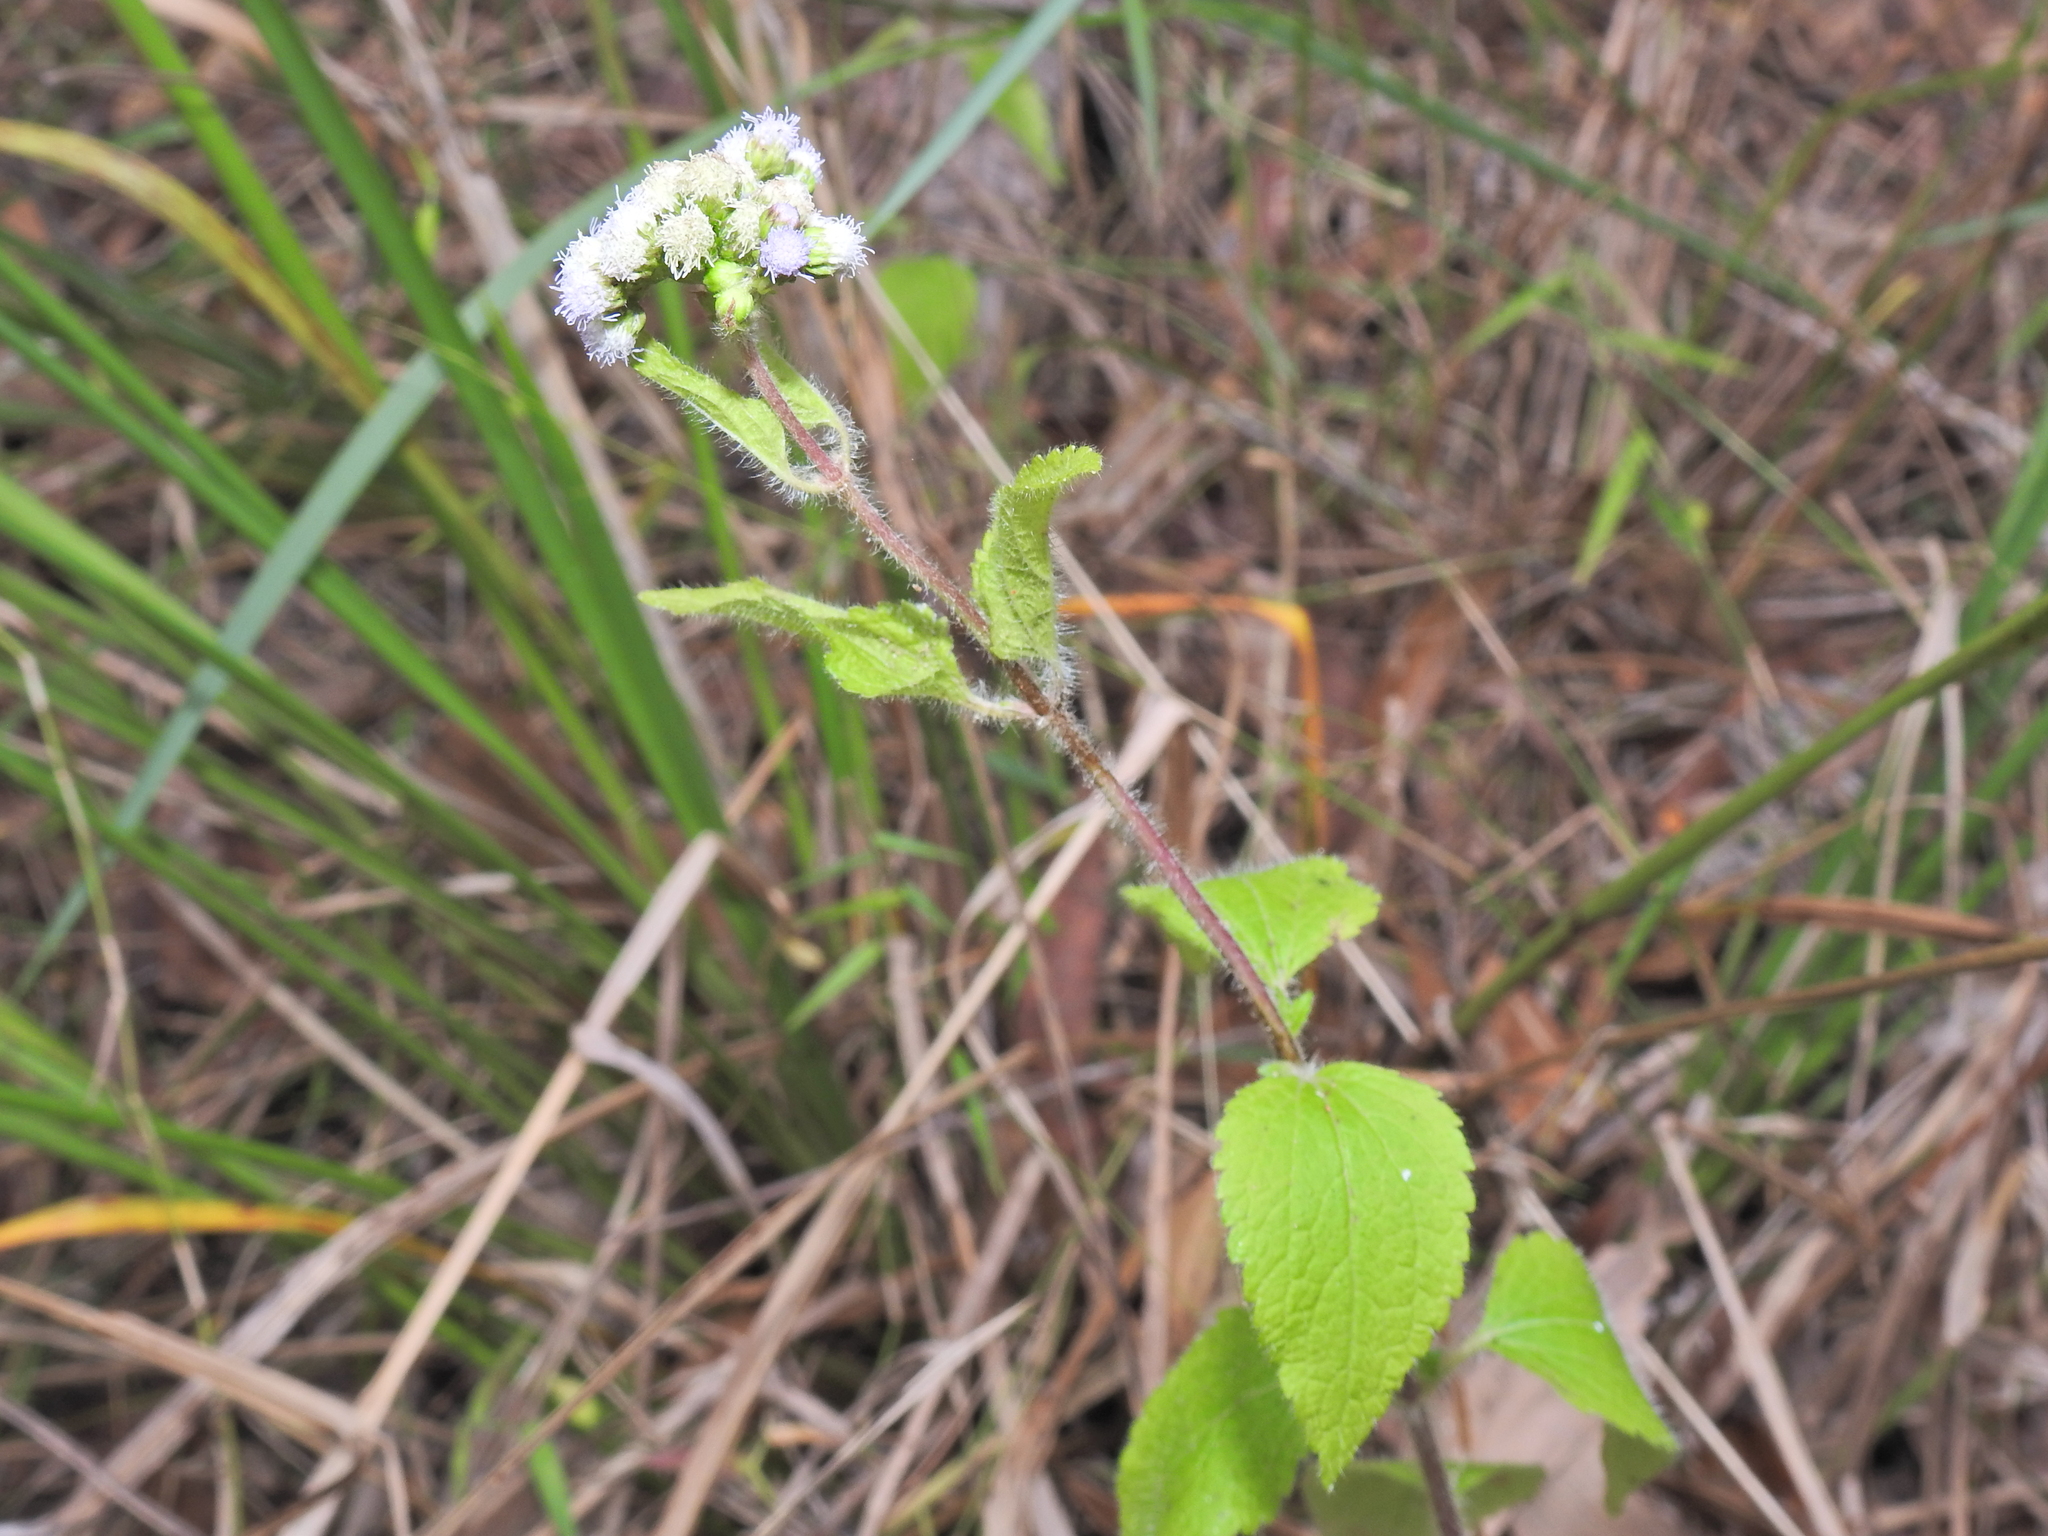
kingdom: Plantae
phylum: Tracheophyta
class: Magnoliopsida
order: Asterales
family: Asteraceae
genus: Ageratum
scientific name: Ageratum conyzoides
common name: Tropical whiteweed
